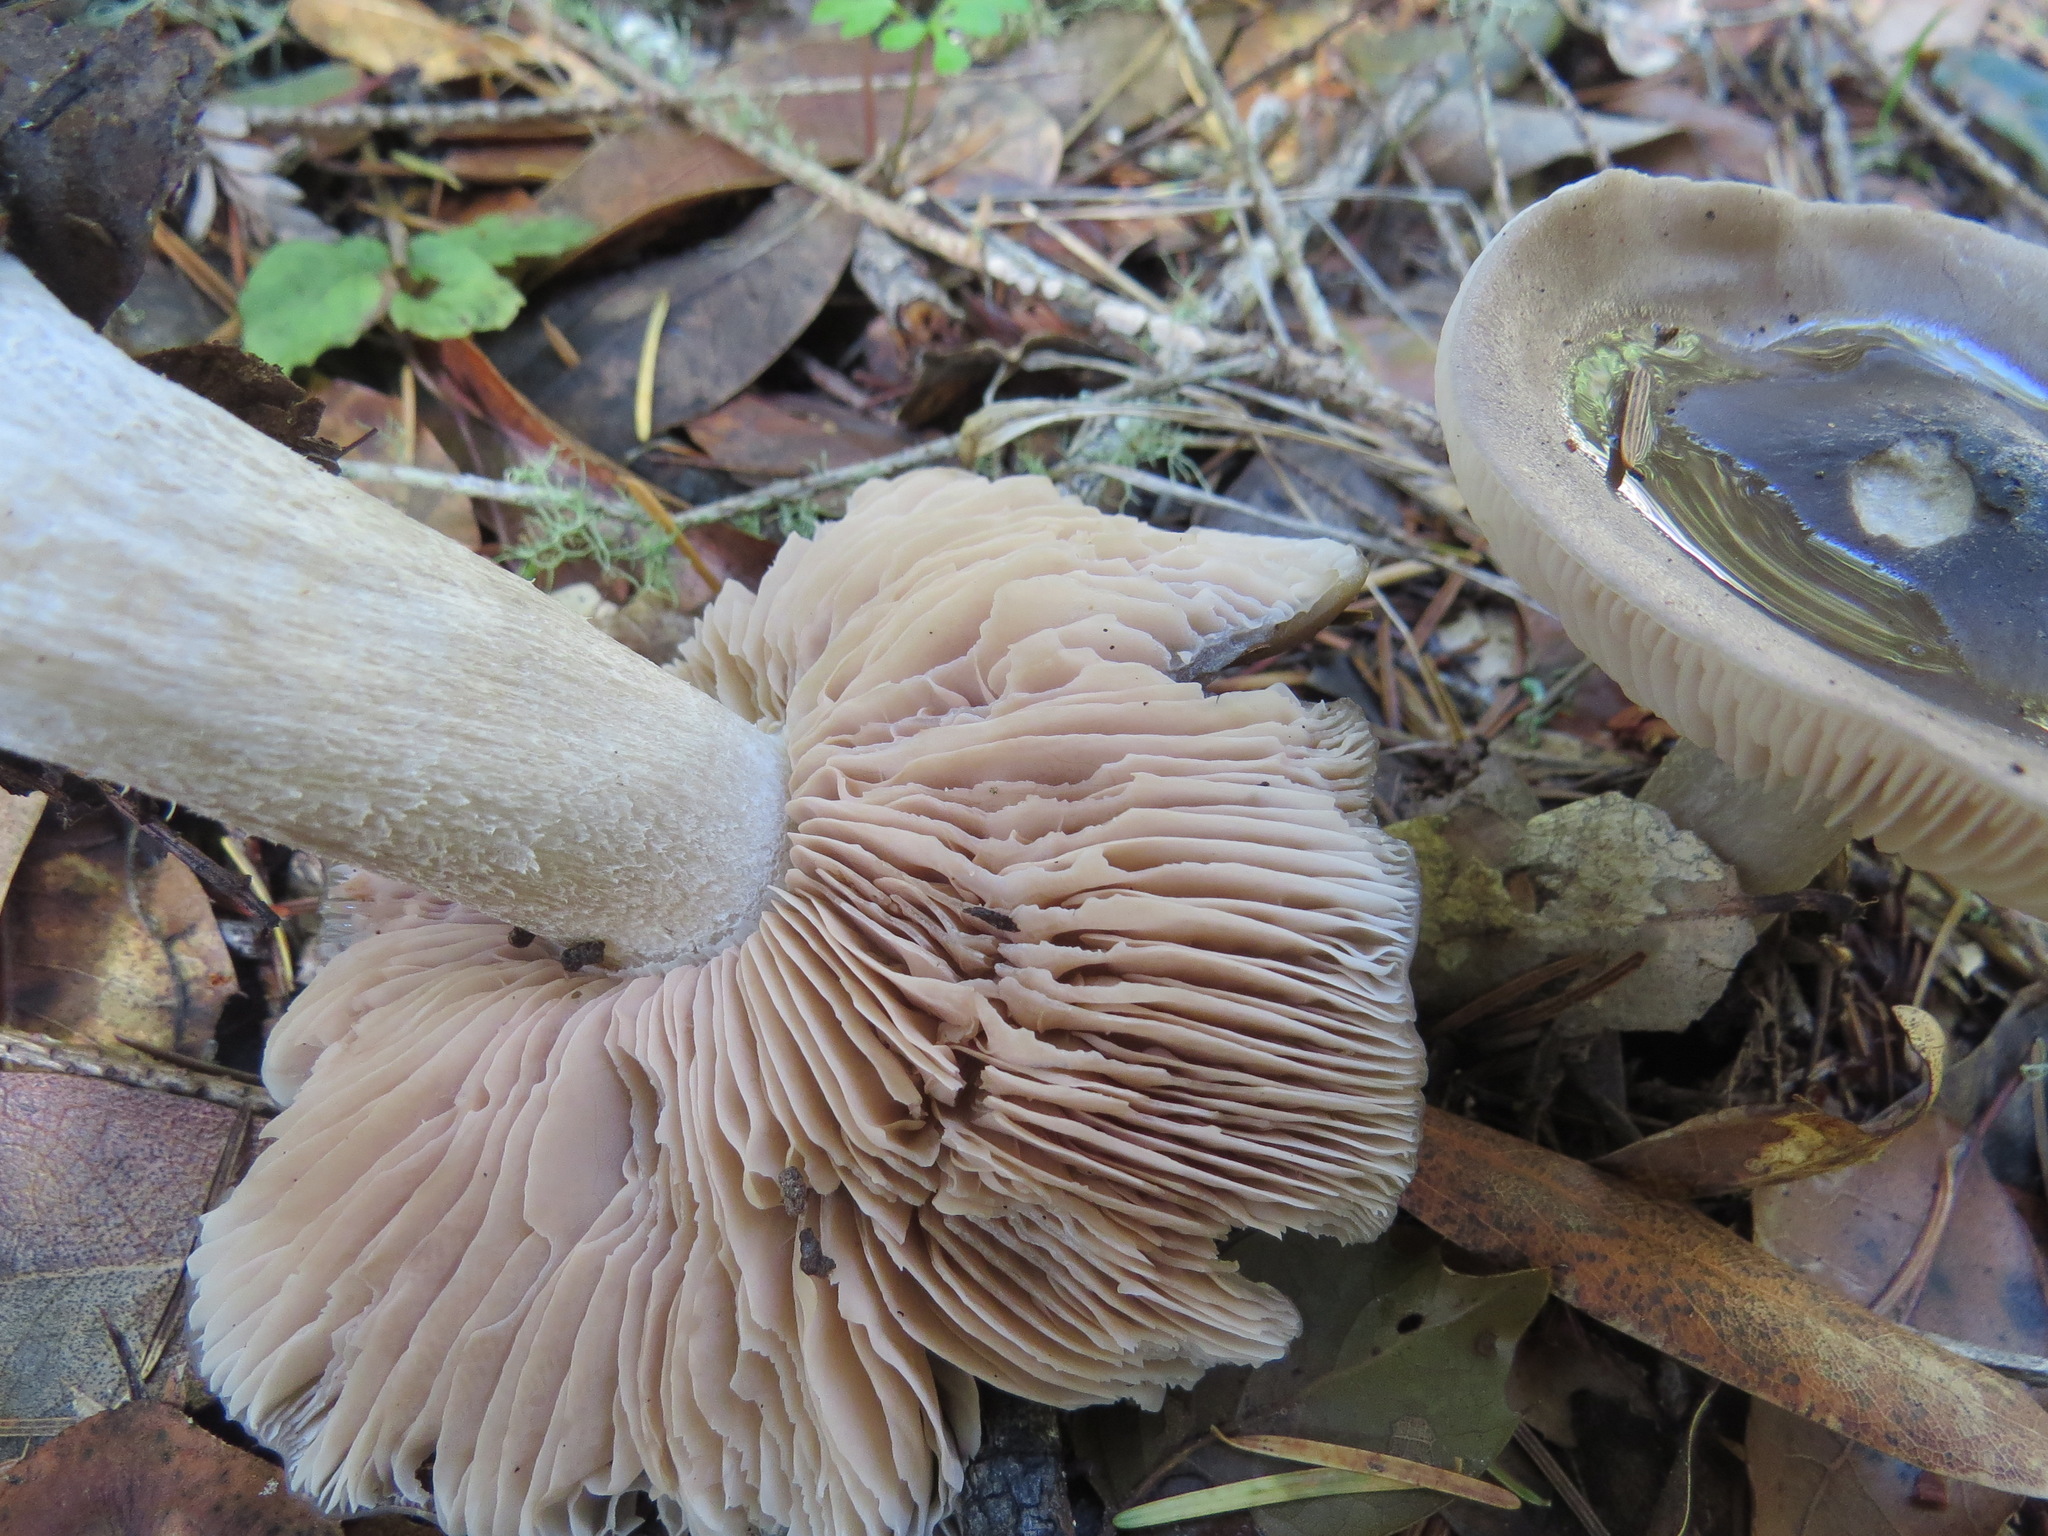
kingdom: Fungi
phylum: Basidiomycota
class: Agaricomycetes
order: Agaricales
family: Entolomataceae
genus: Entoloma
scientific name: Entoloma ferruginans
